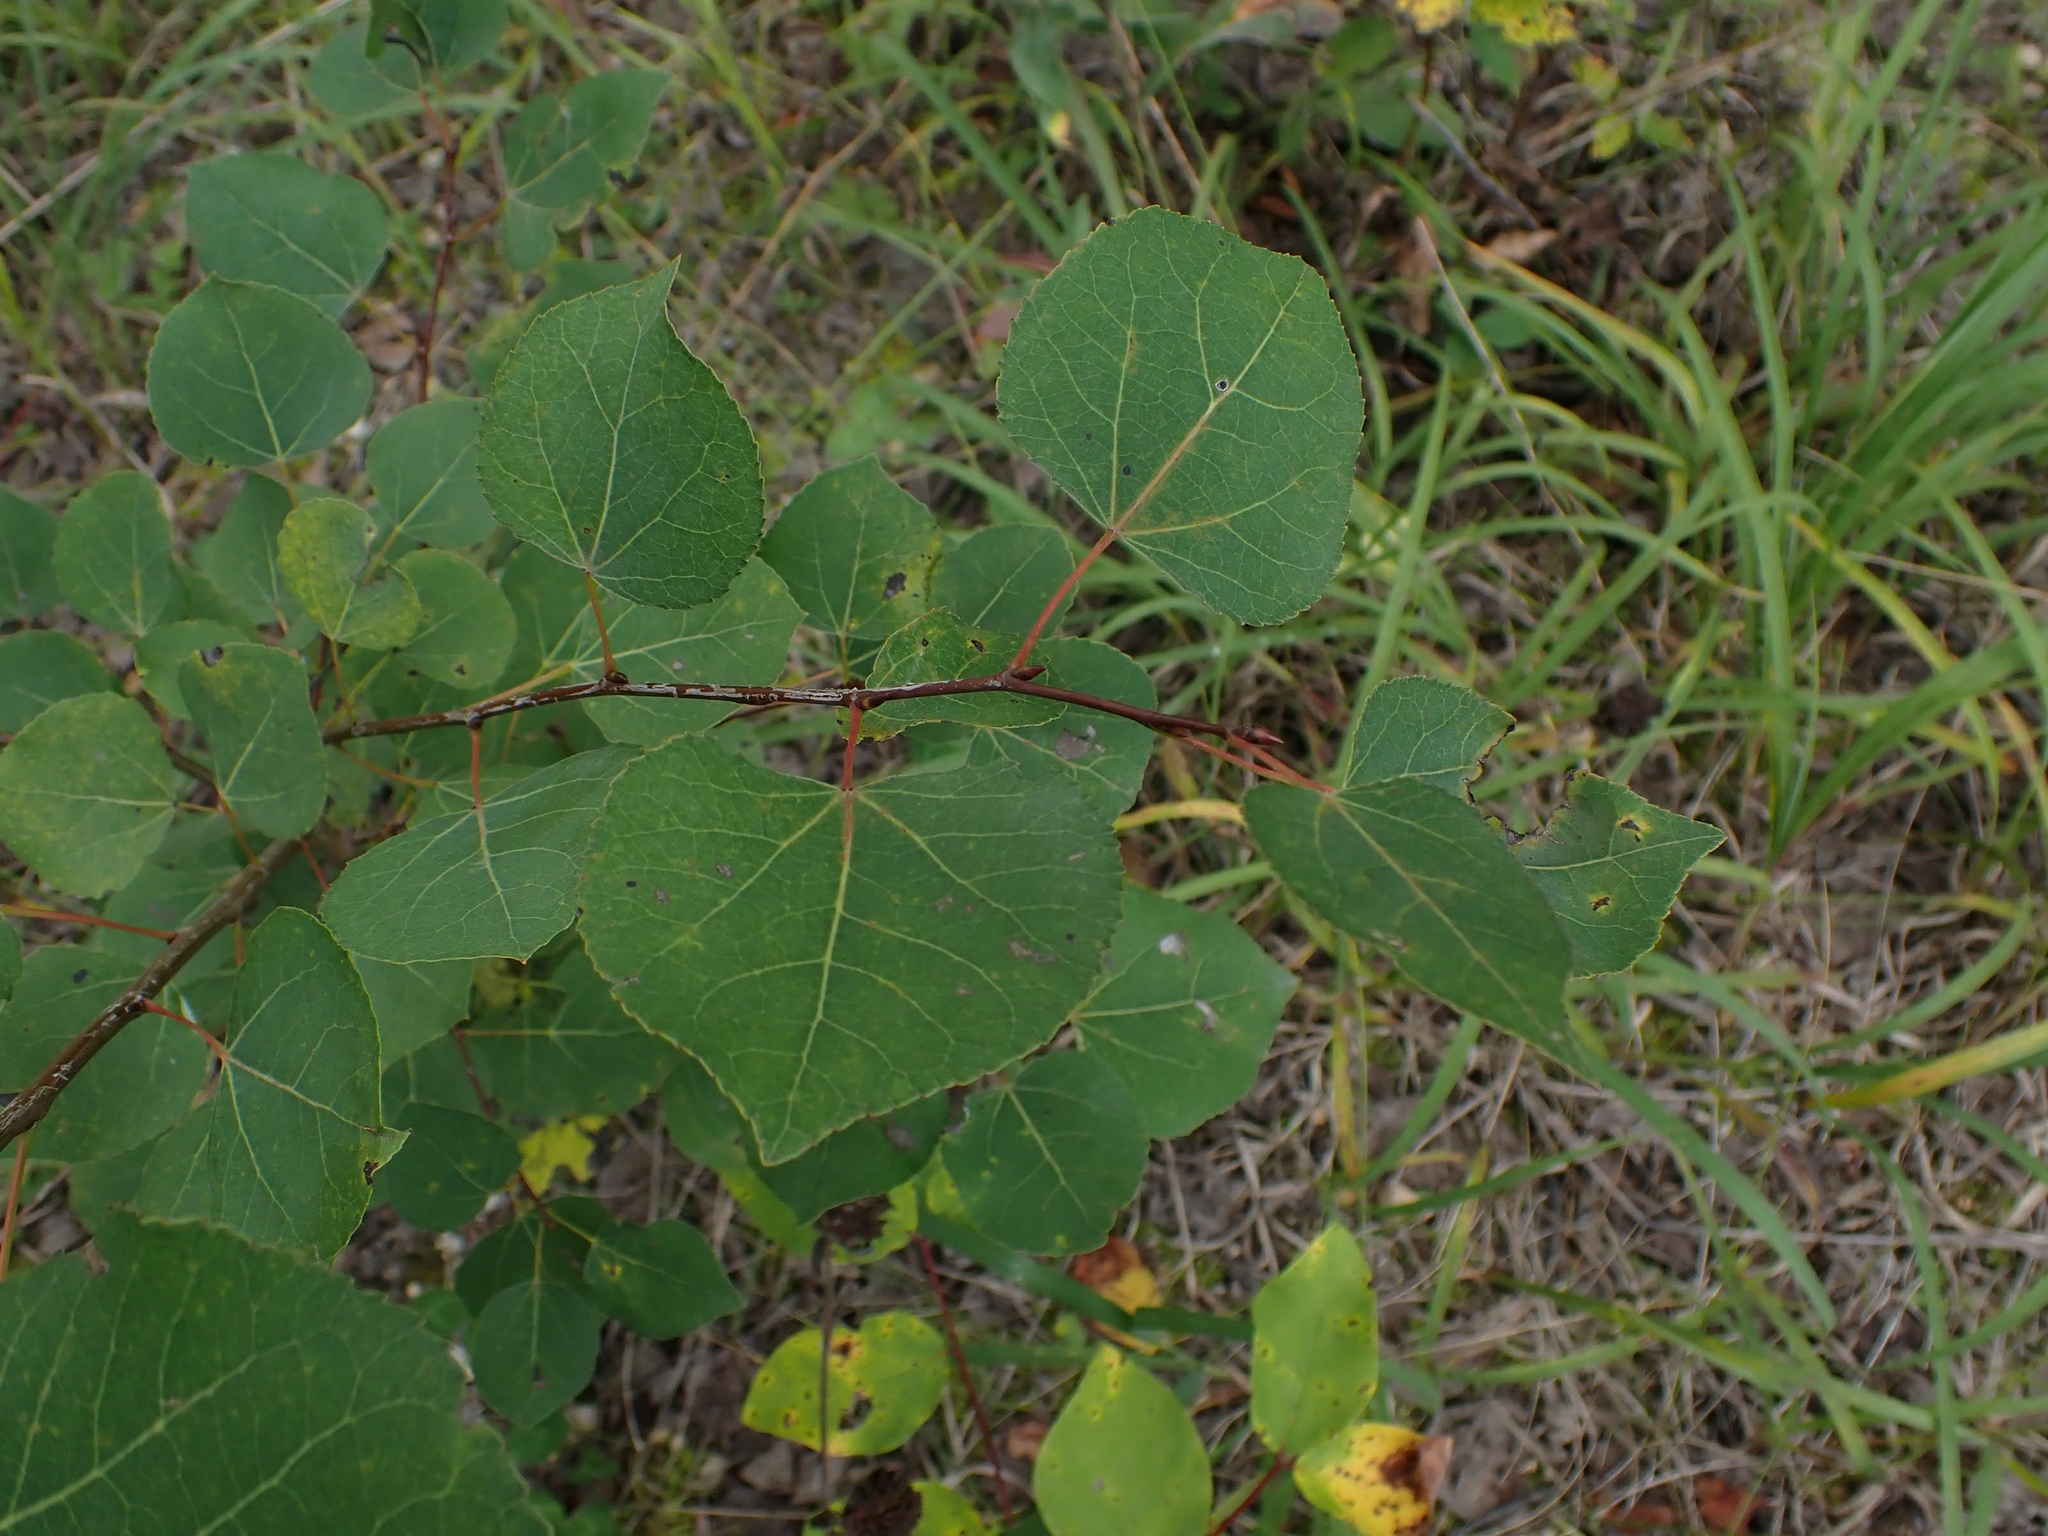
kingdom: Plantae
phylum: Tracheophyta
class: Magnoliopsida
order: Malpighiales
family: Salicaceae
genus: Populus
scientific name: Populus tremuloides
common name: Quaking aspen
